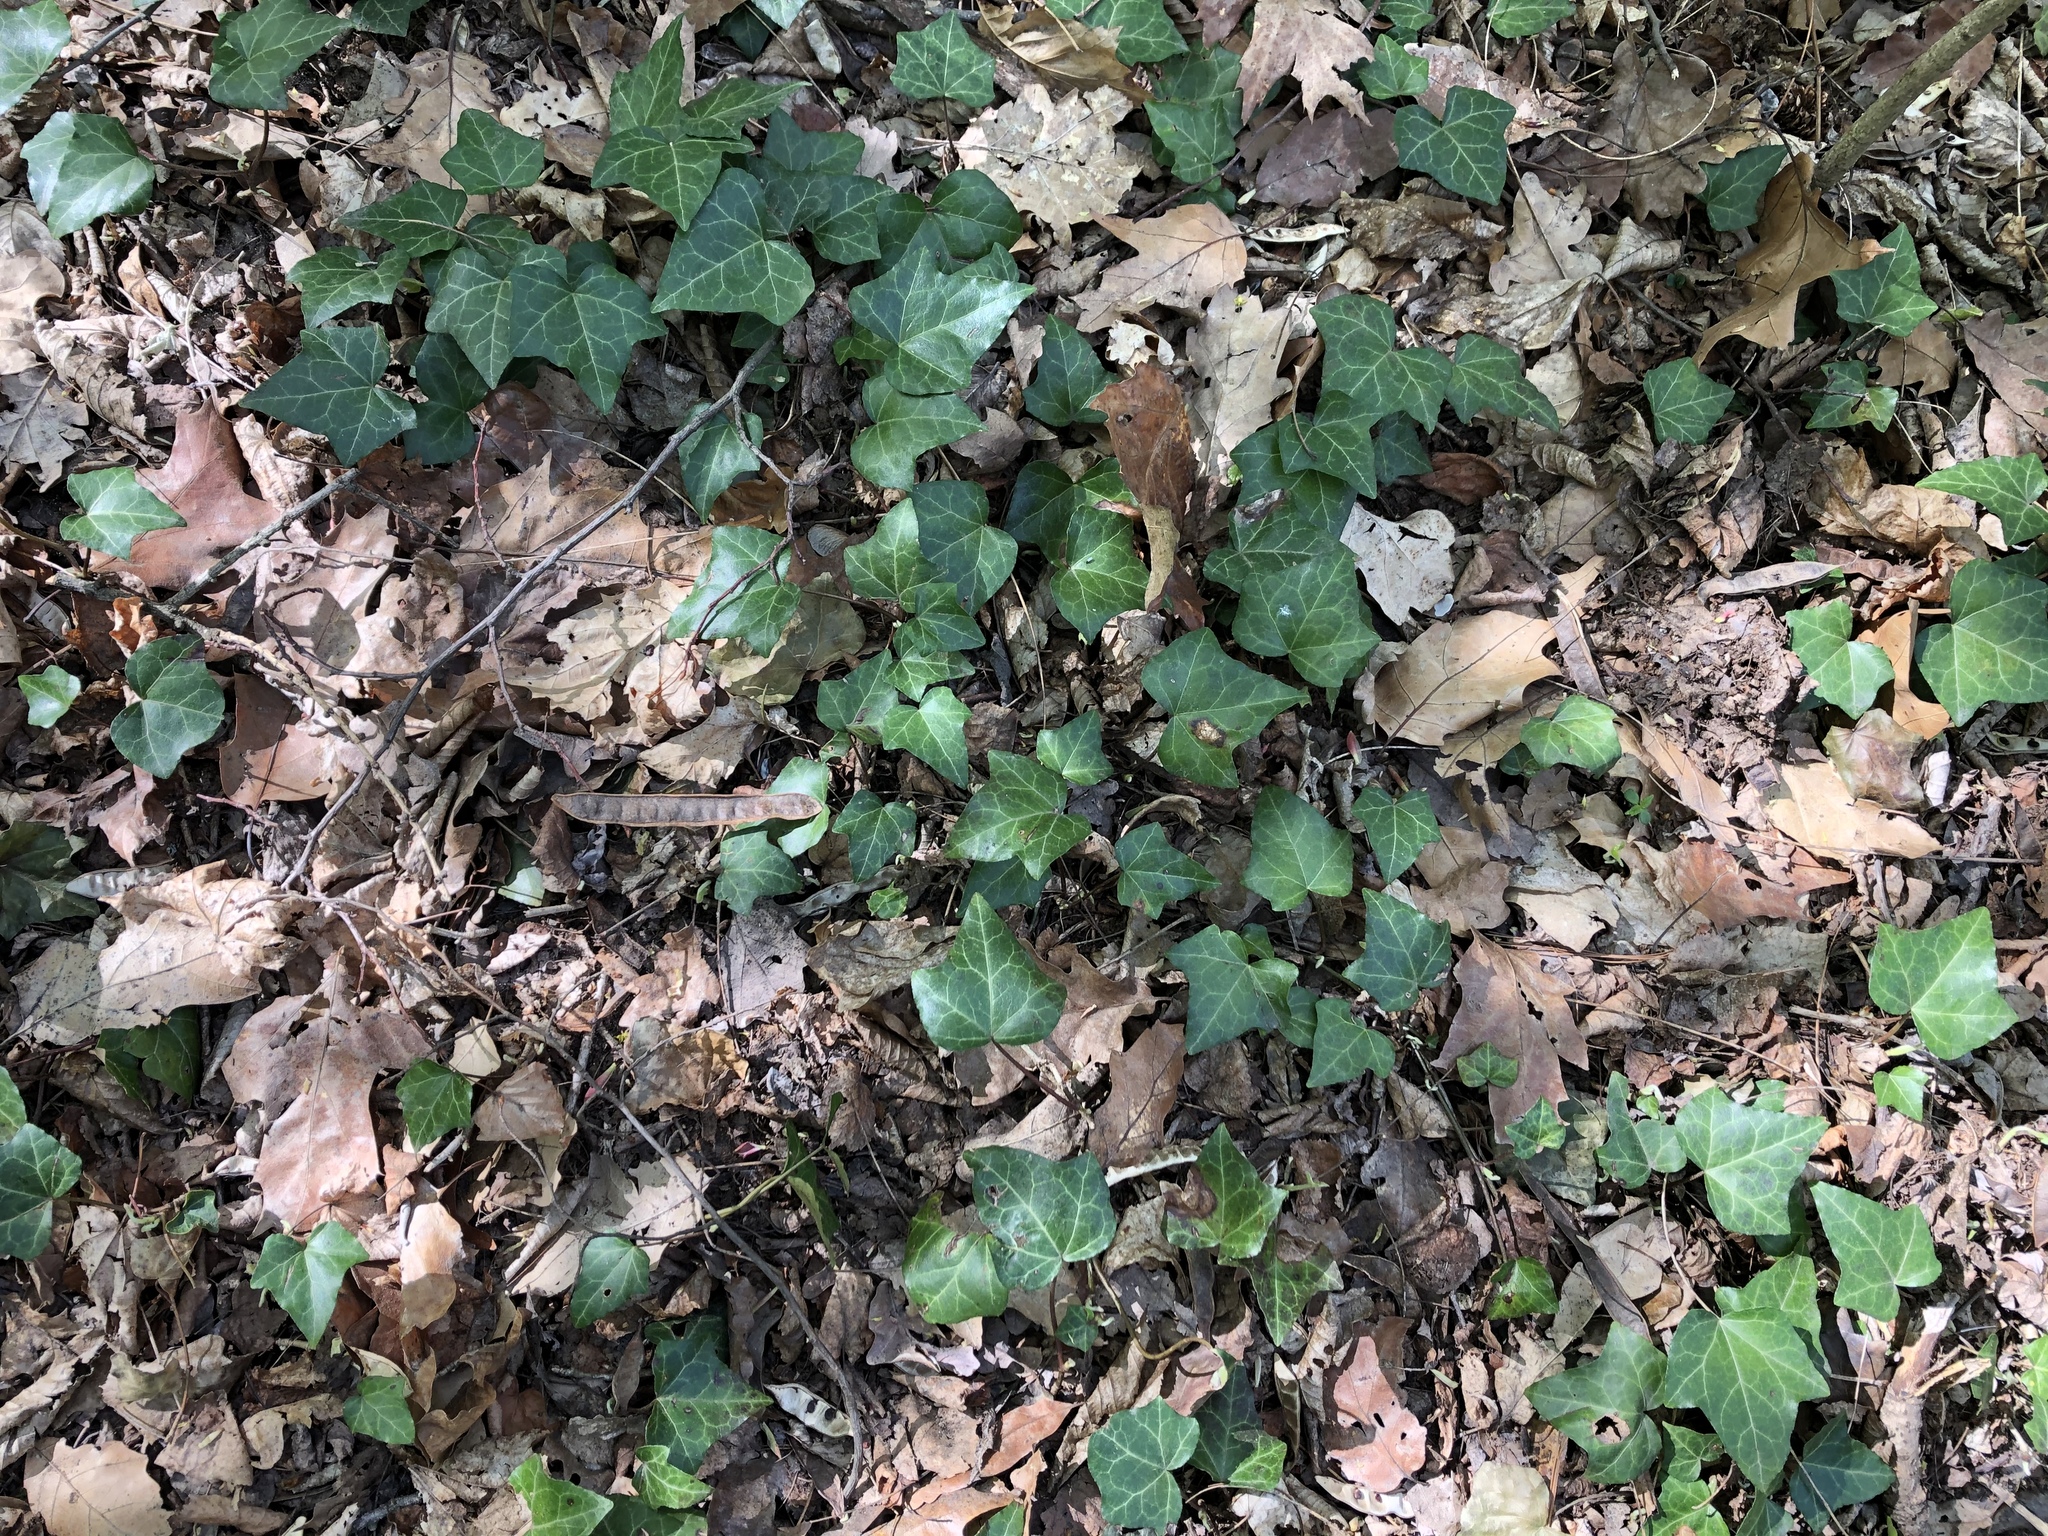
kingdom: Plantae
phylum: Tracheophyta
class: Magnoliopsida
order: Apiales
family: Araliaceae
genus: Hedera
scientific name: Hedera helix
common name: Ivy
